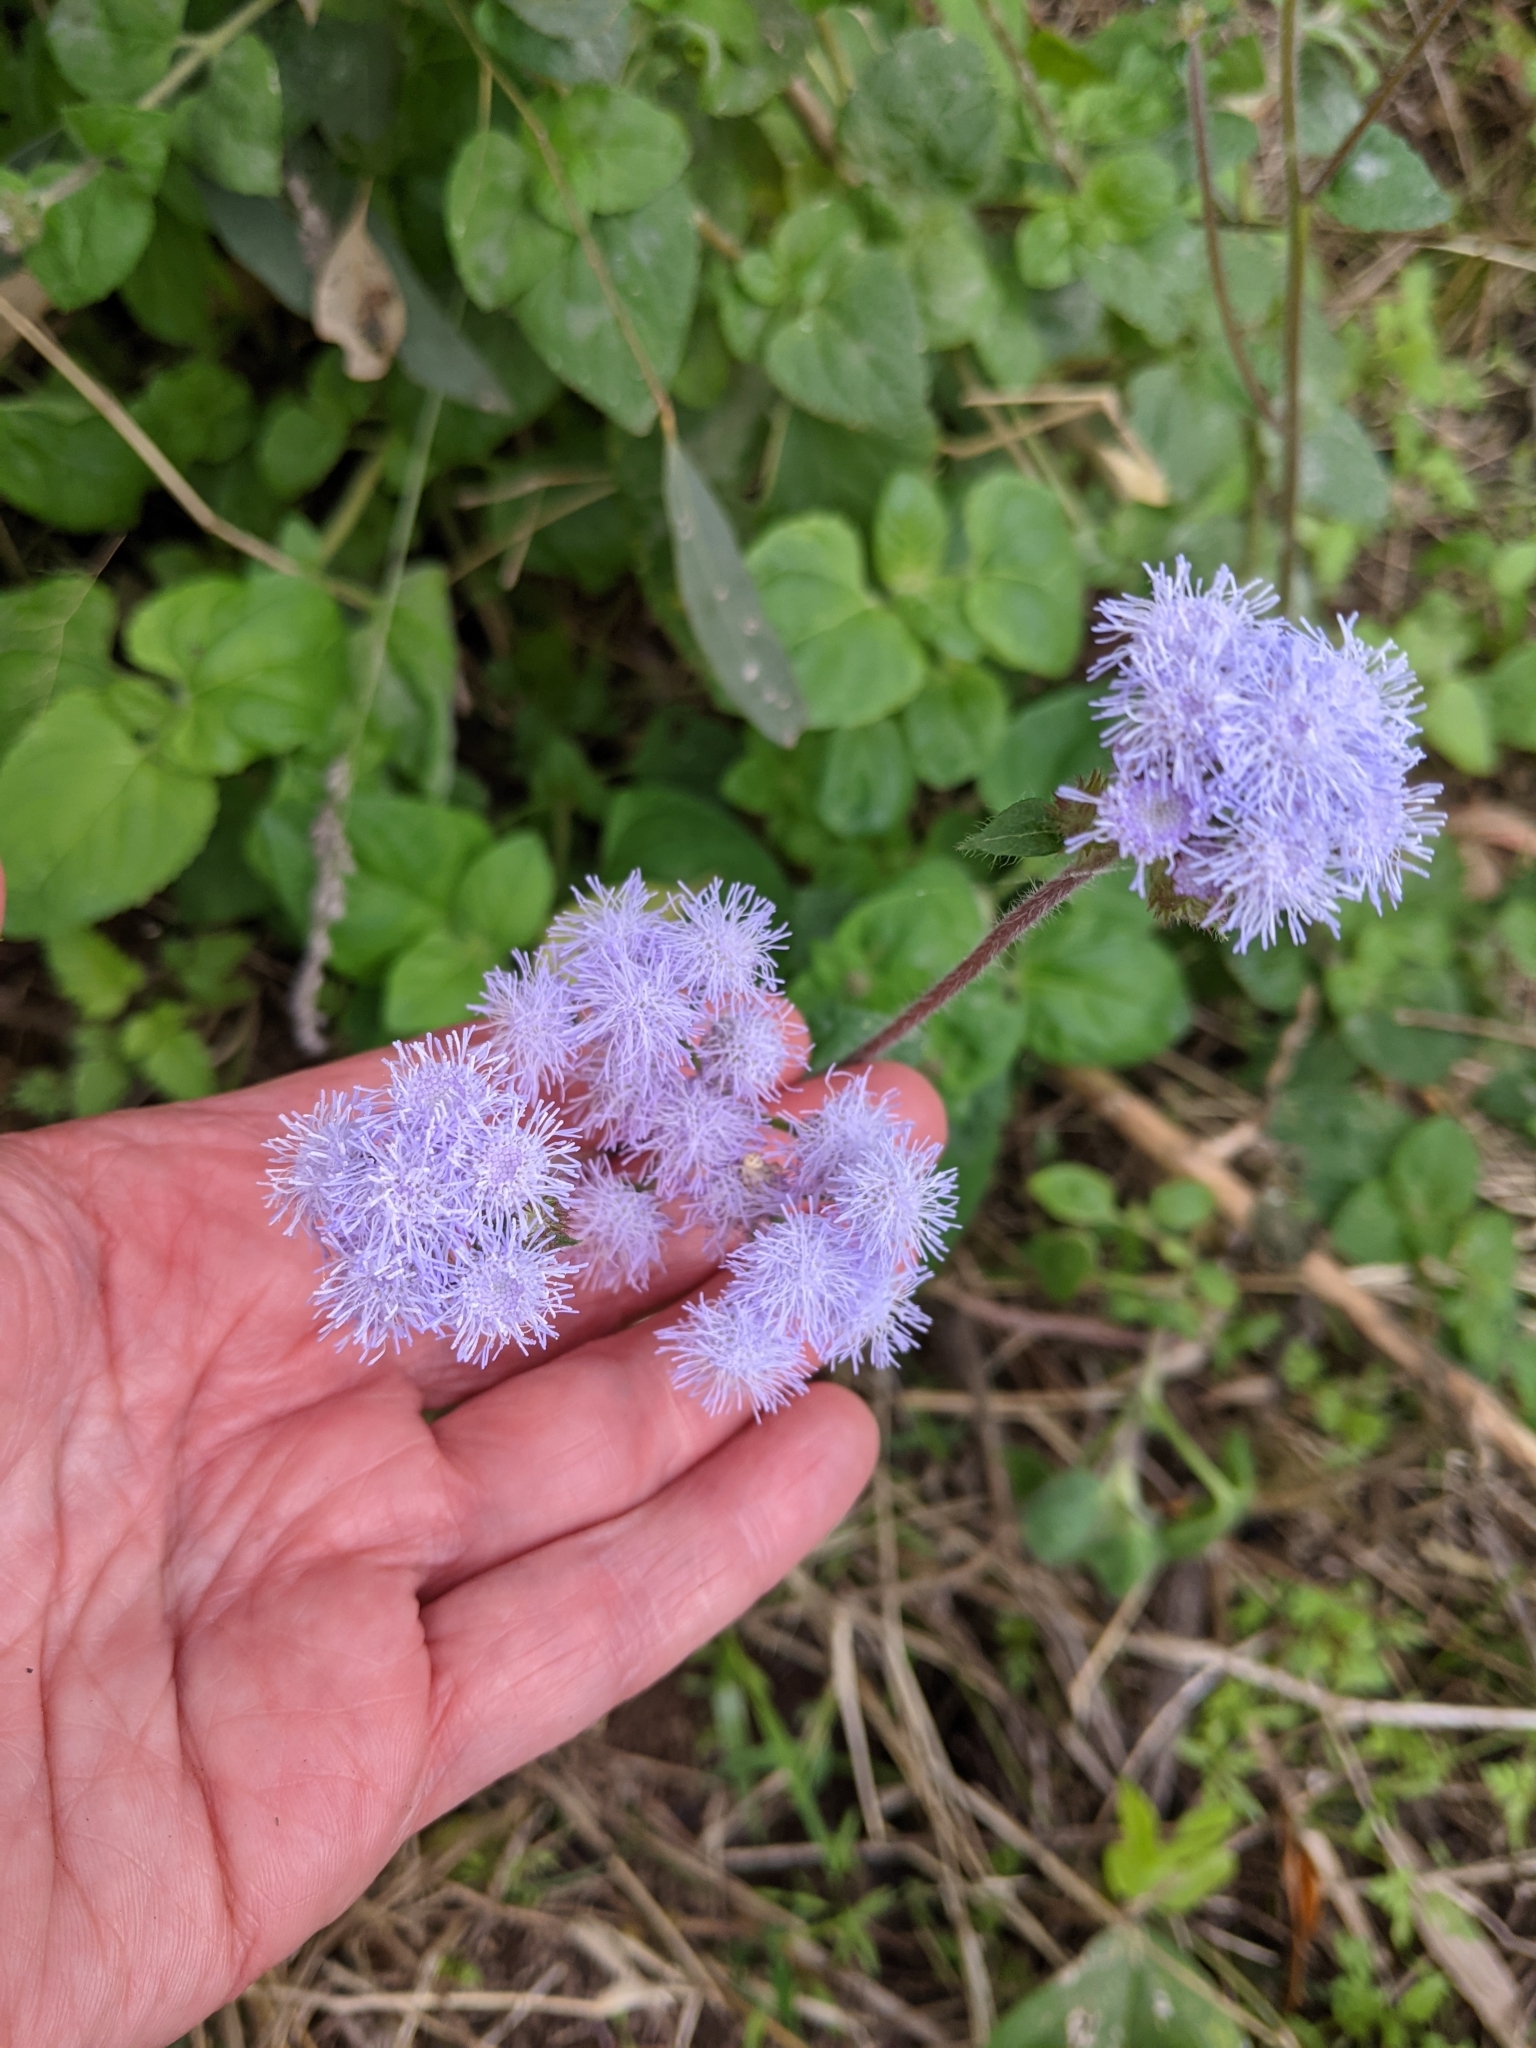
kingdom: Plantae
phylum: Tracheophyta
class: Magnoliopsida
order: Asterales
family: Asteraceae
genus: Ageratum
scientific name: Ageratum houstonianum
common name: Bluemink
